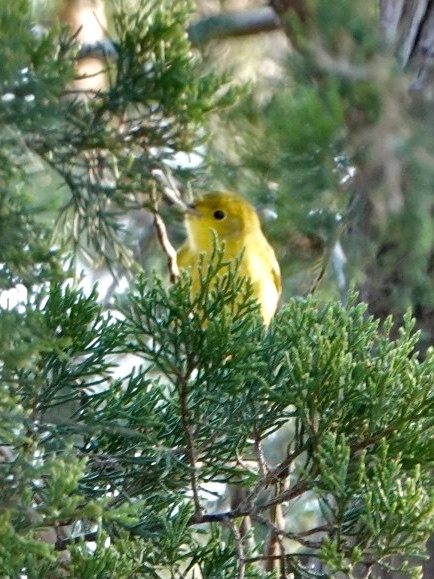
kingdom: Animalia
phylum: Chordata
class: Aves
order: Passeriformes
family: Parulidae
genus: Setophaga
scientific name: Setophaga petechia
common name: Yellow warbler
